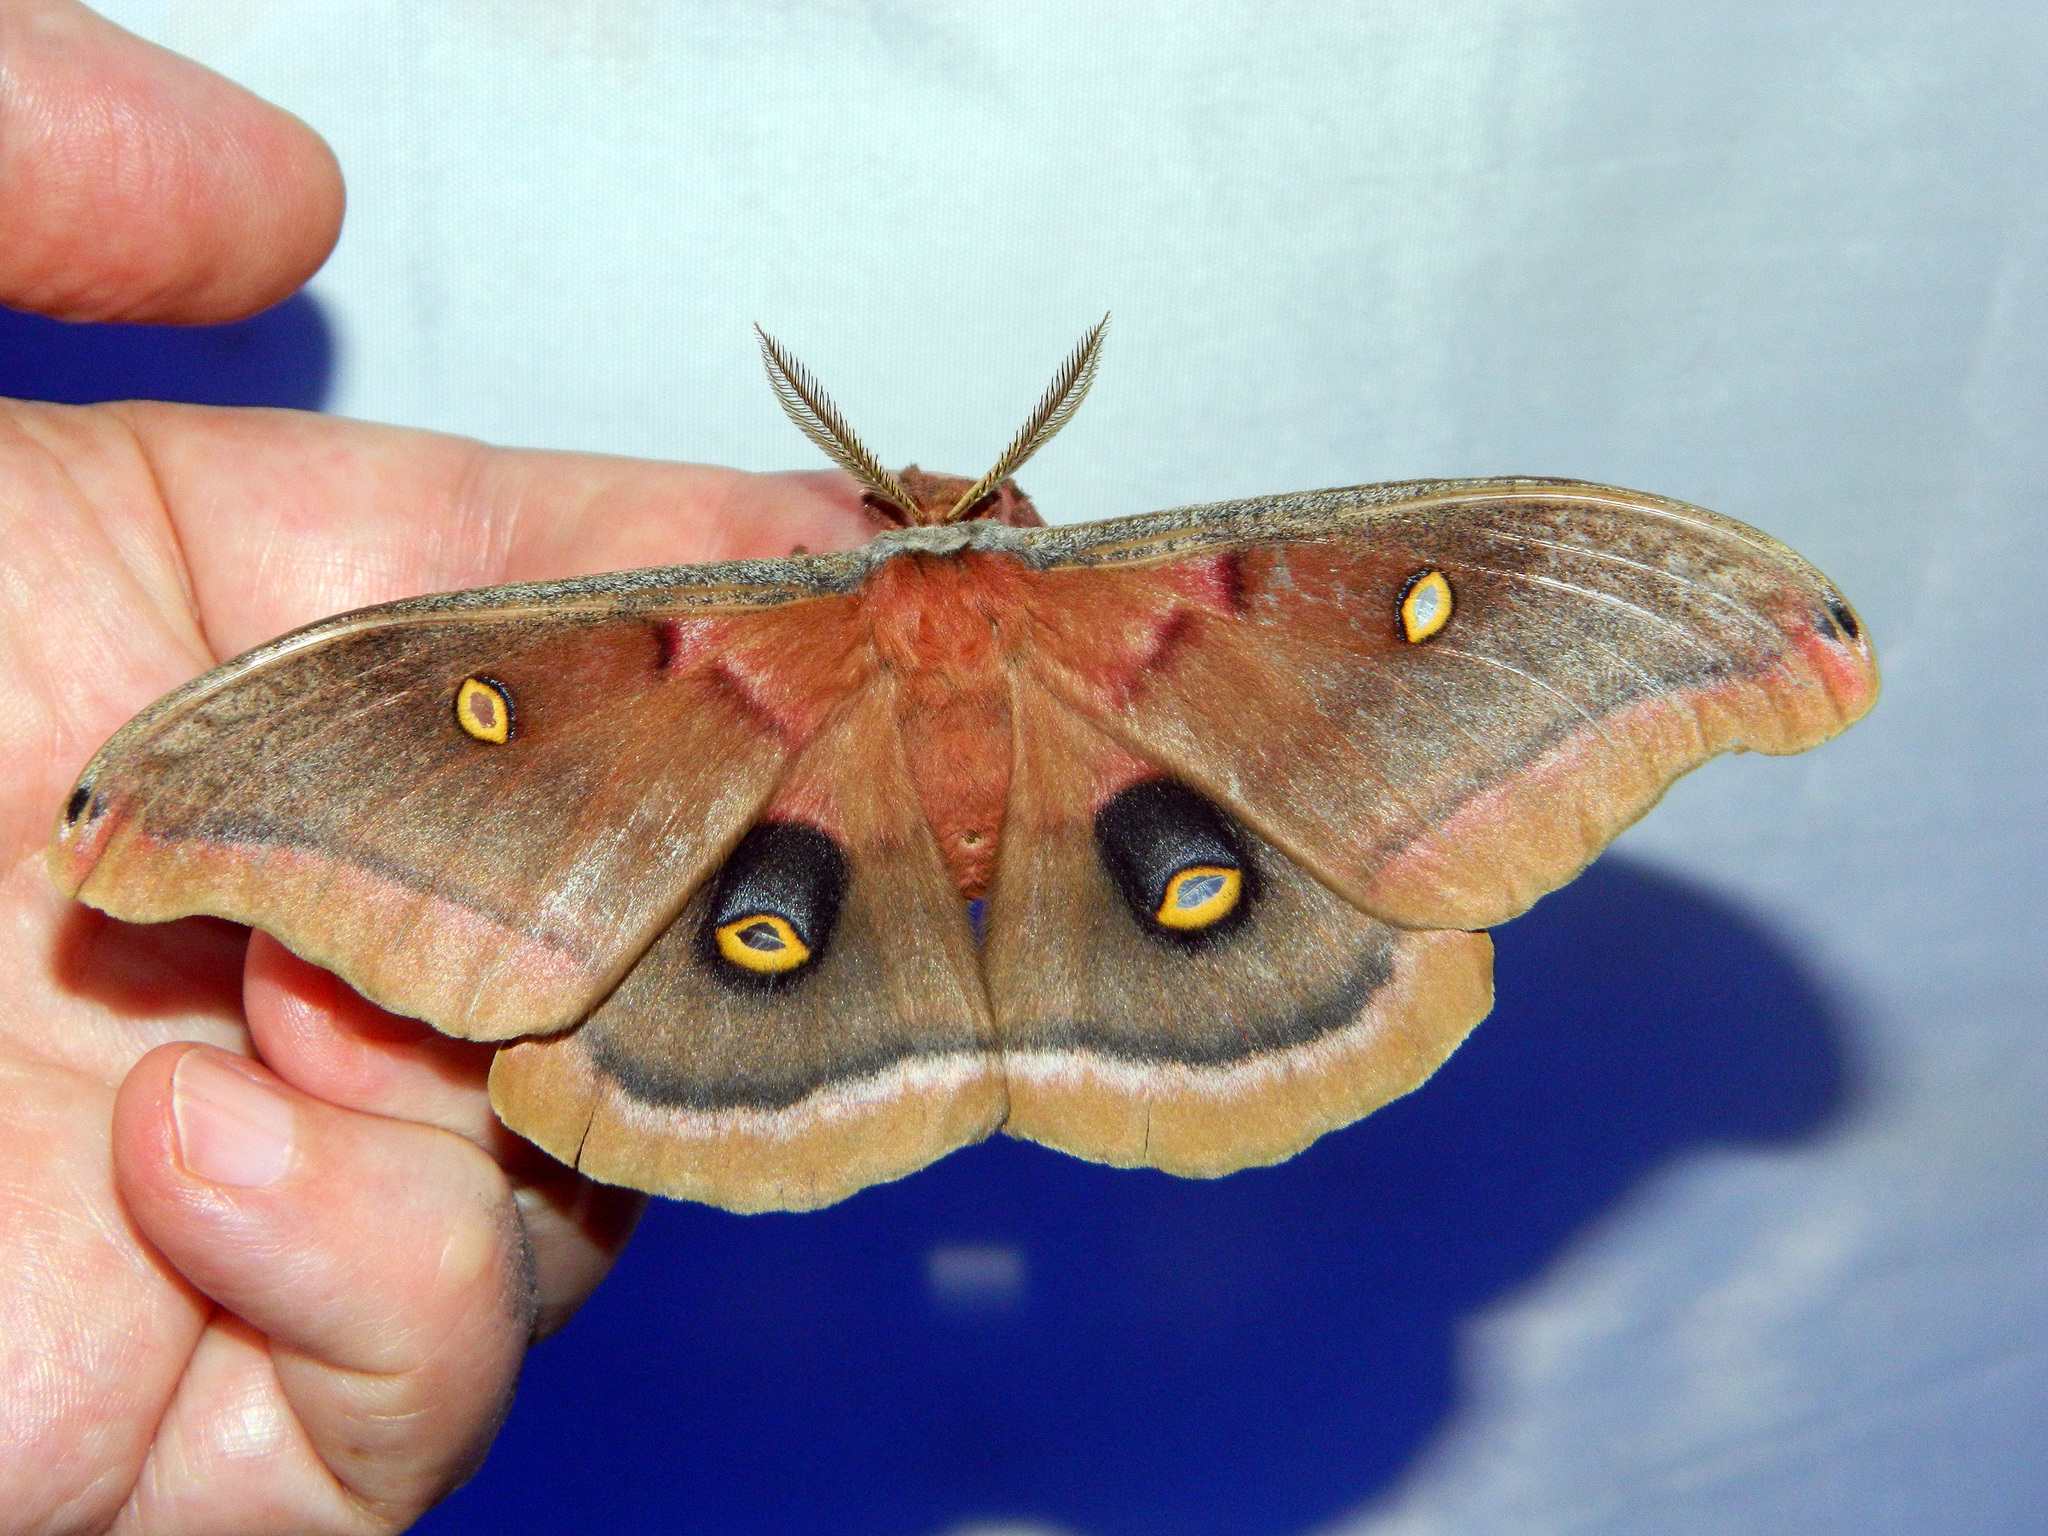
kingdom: Animalia
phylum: Arthropoda
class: Insecta
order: Lepidoptera
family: Saturniidae
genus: Antheraea
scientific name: Antheraea polyphemus
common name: Polyphemus moth
